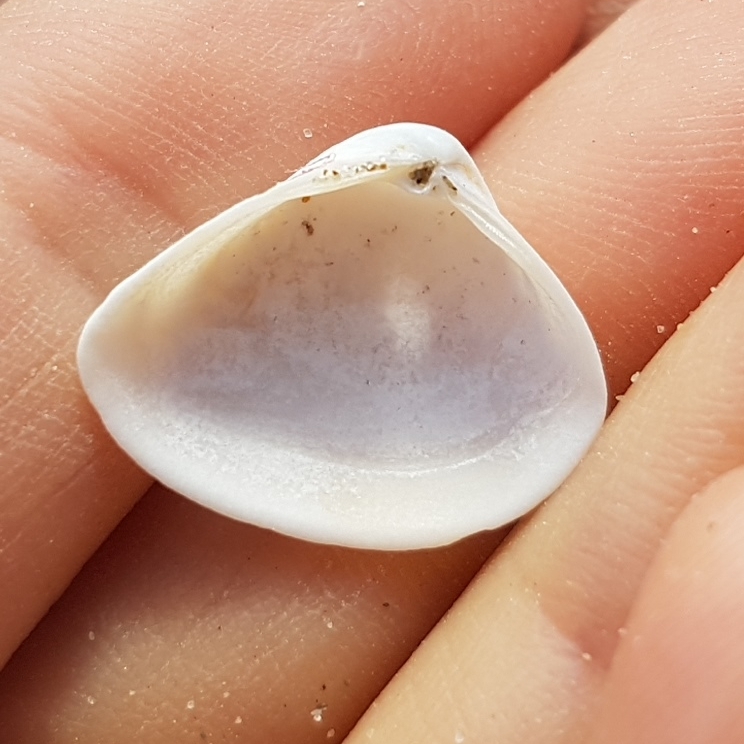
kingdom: Animalia
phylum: Mollusca
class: Bivalvia
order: Venerida
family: Mactridae
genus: Spisula
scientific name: Spisula subtruncata
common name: Cut trough shell
